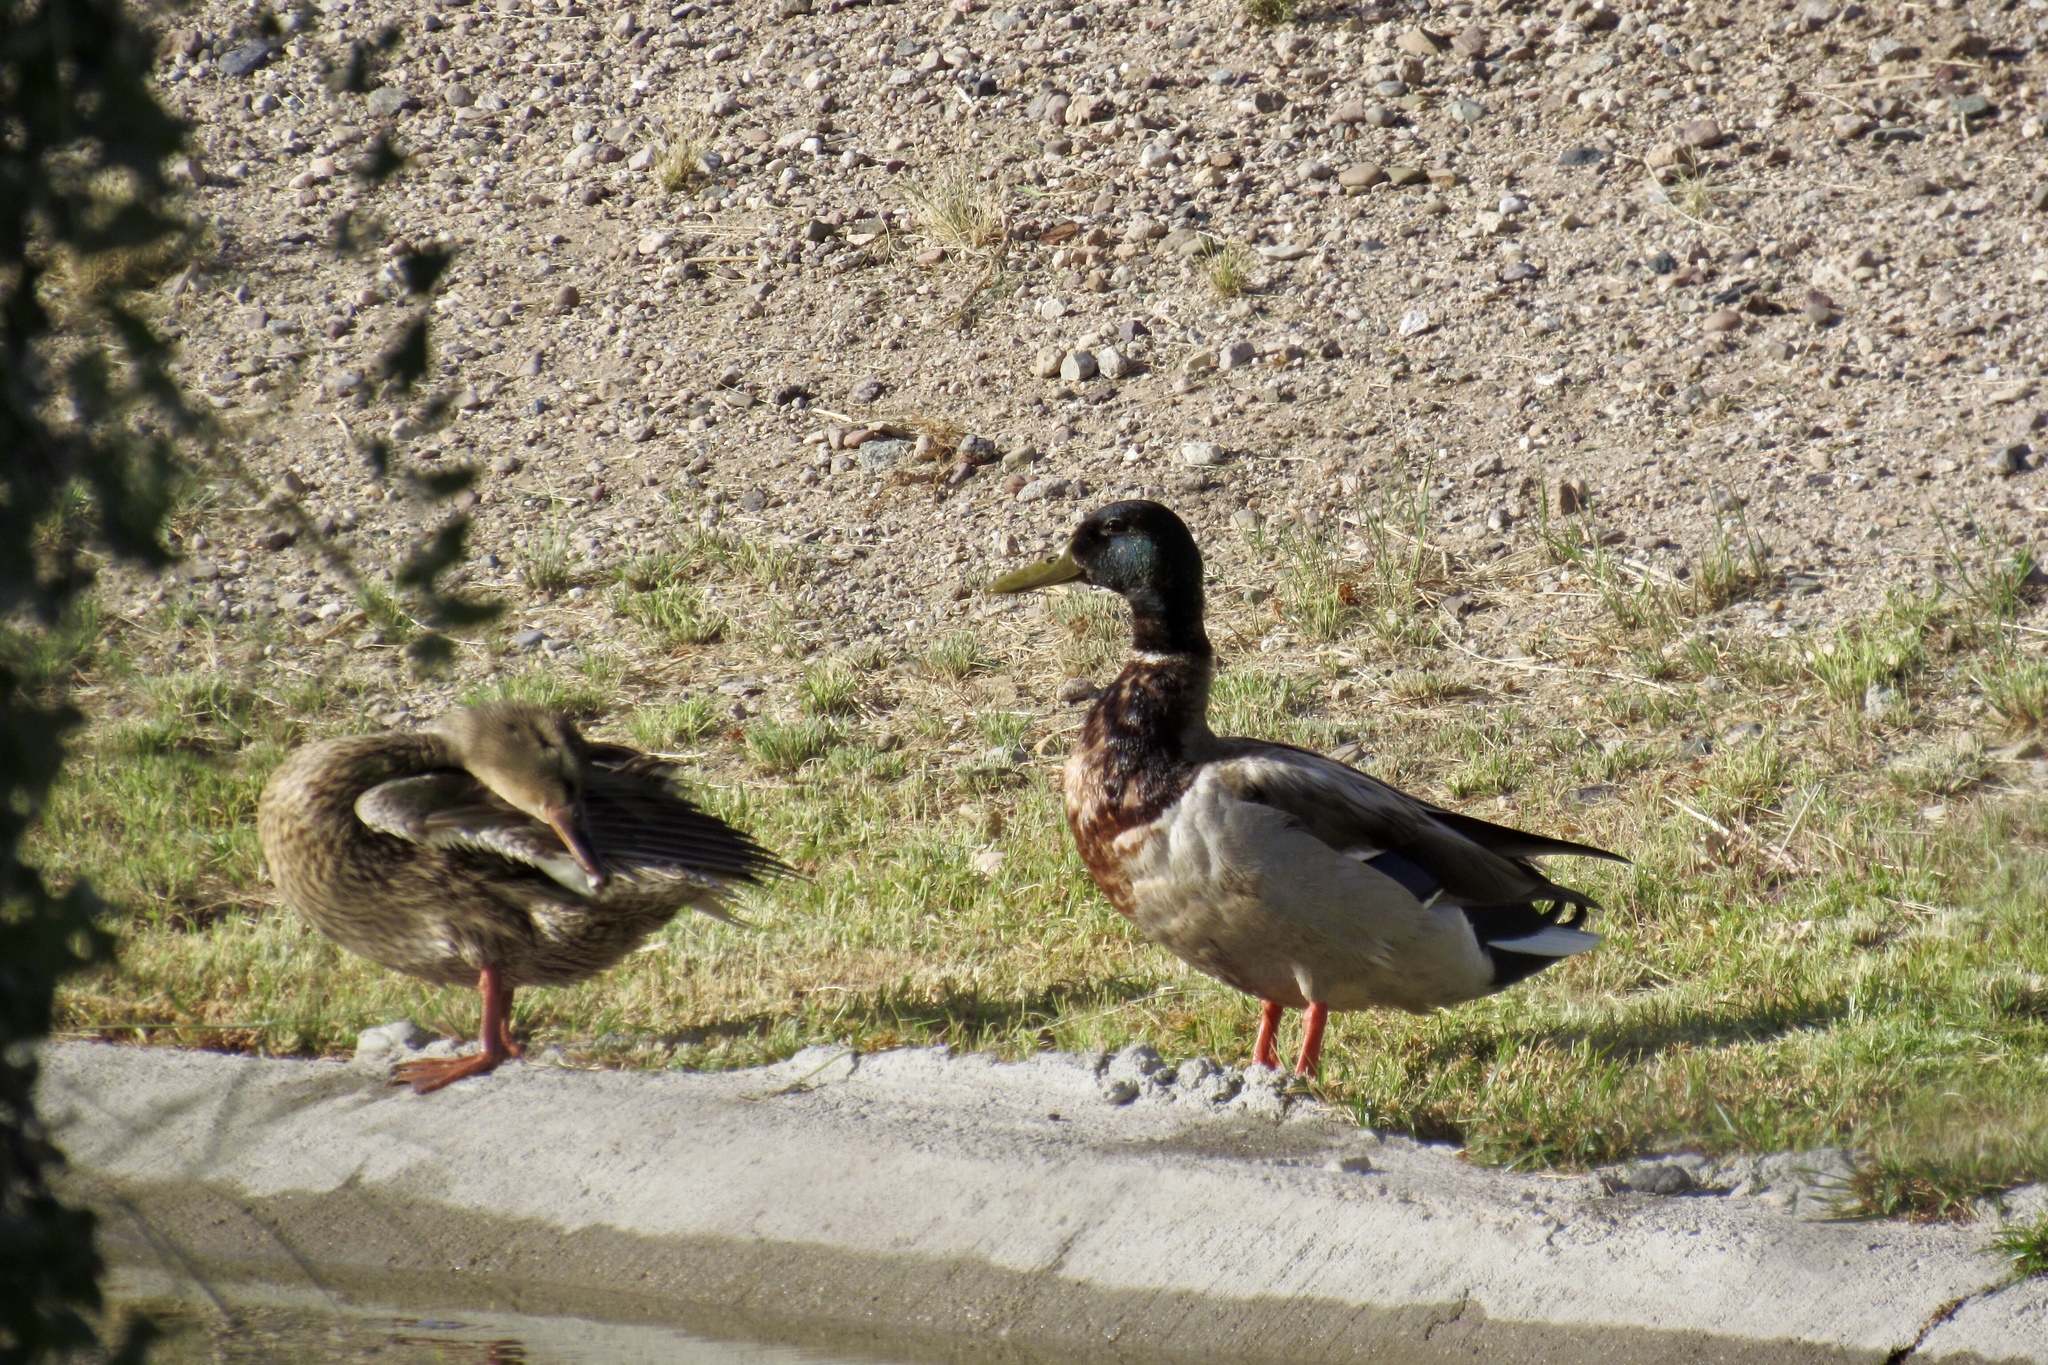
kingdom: Animalia
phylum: Chordata
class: Aves
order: Anseriformes
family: Anatidae
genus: Anas
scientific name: Anas platyrhynchos
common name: Mallard
